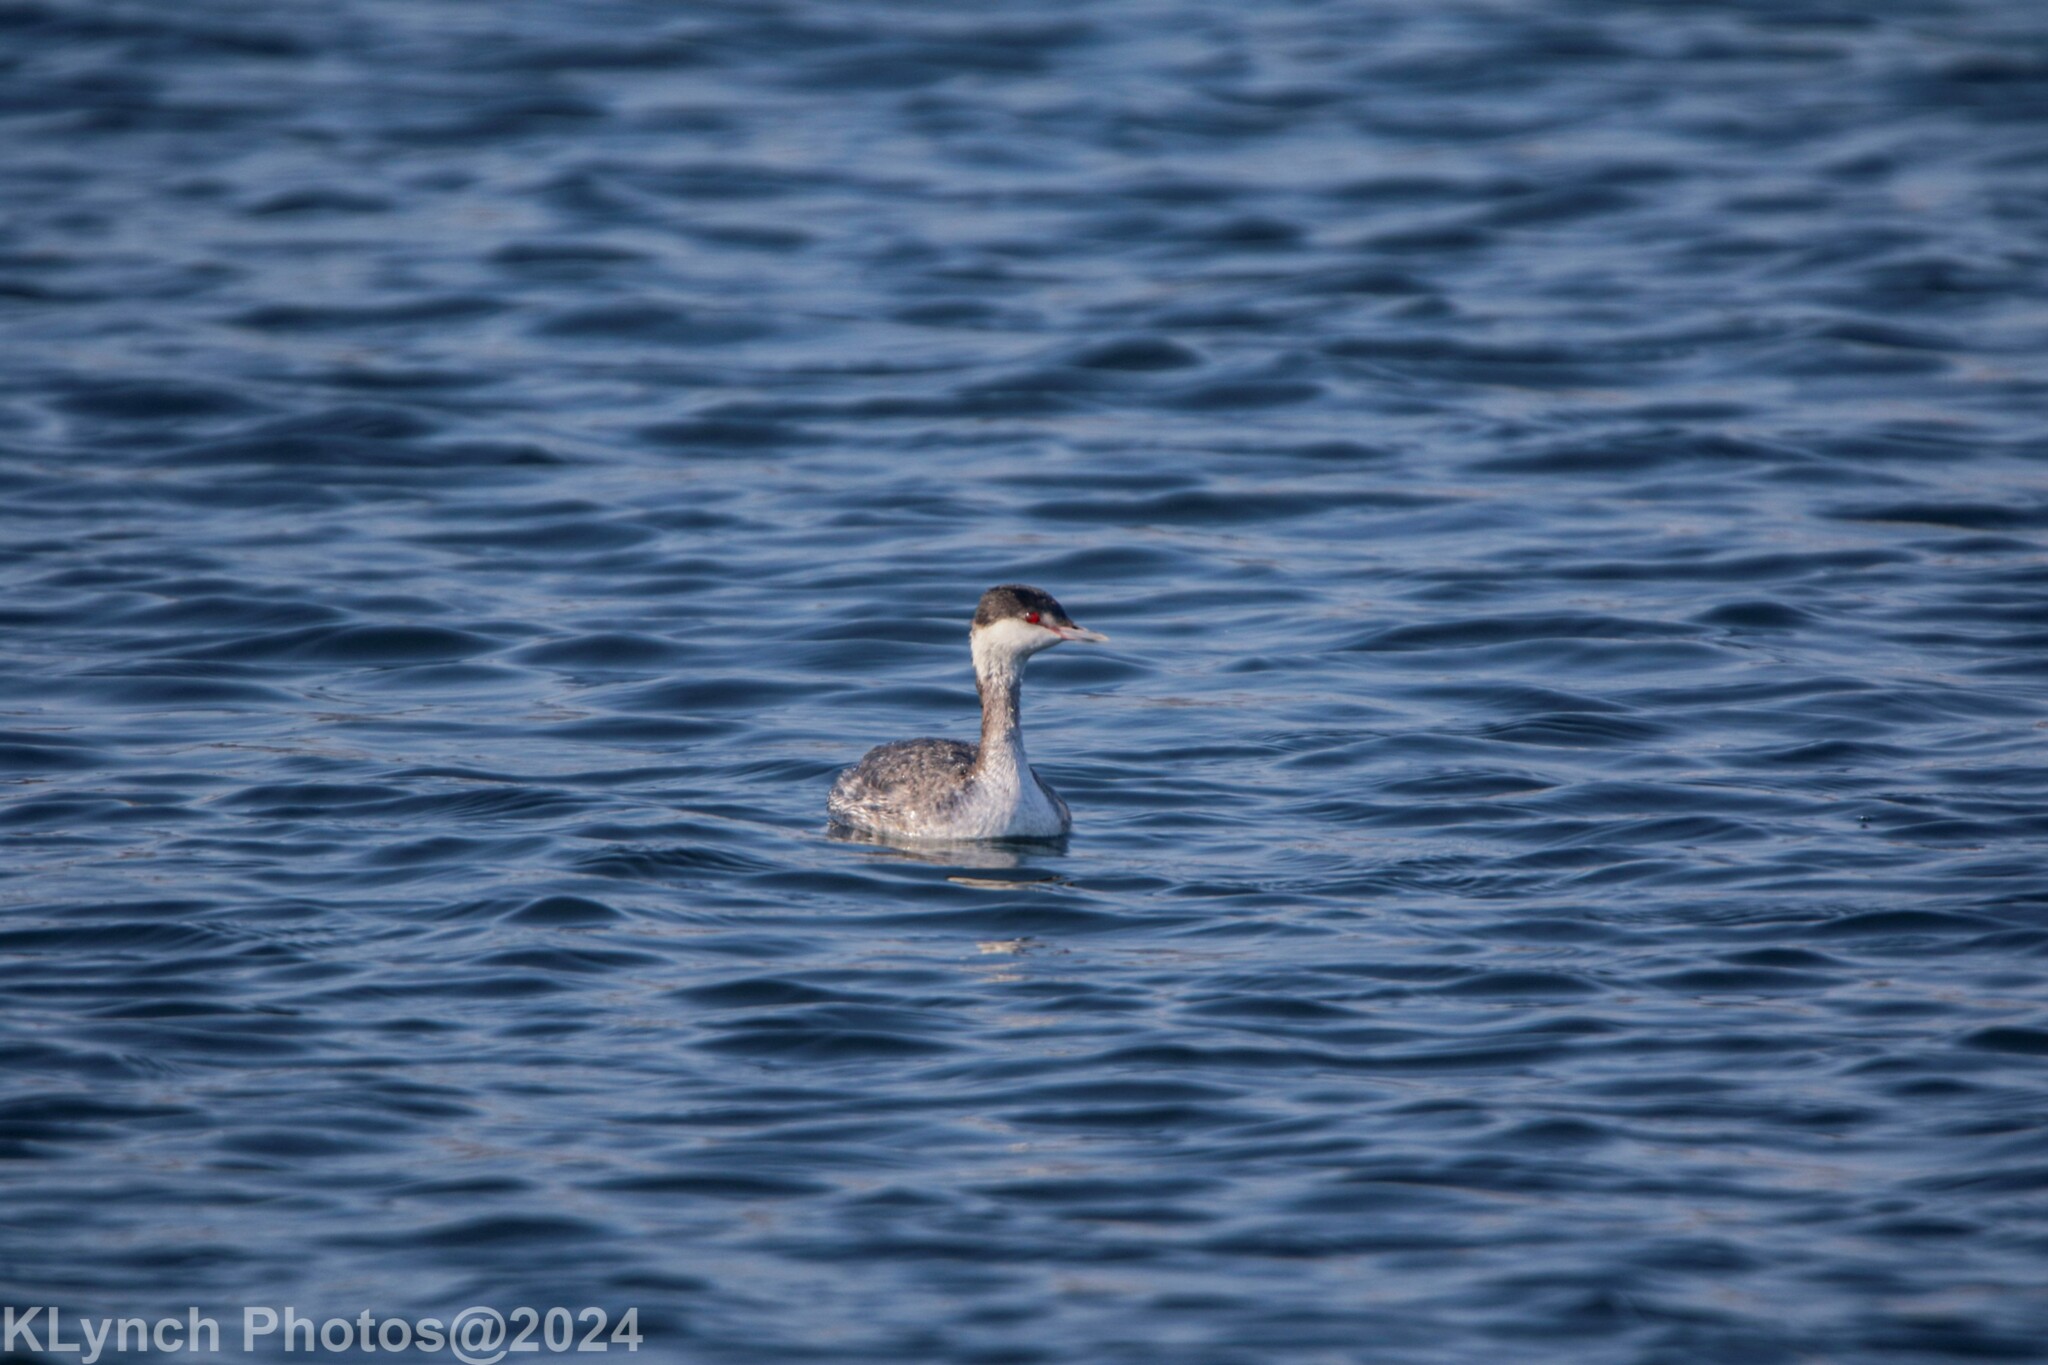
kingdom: Animalia
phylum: Chordata
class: Aves
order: Podicipediformes
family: Podicipedidae
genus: Podiceps
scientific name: Podiceps auritus
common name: Horned grebe
